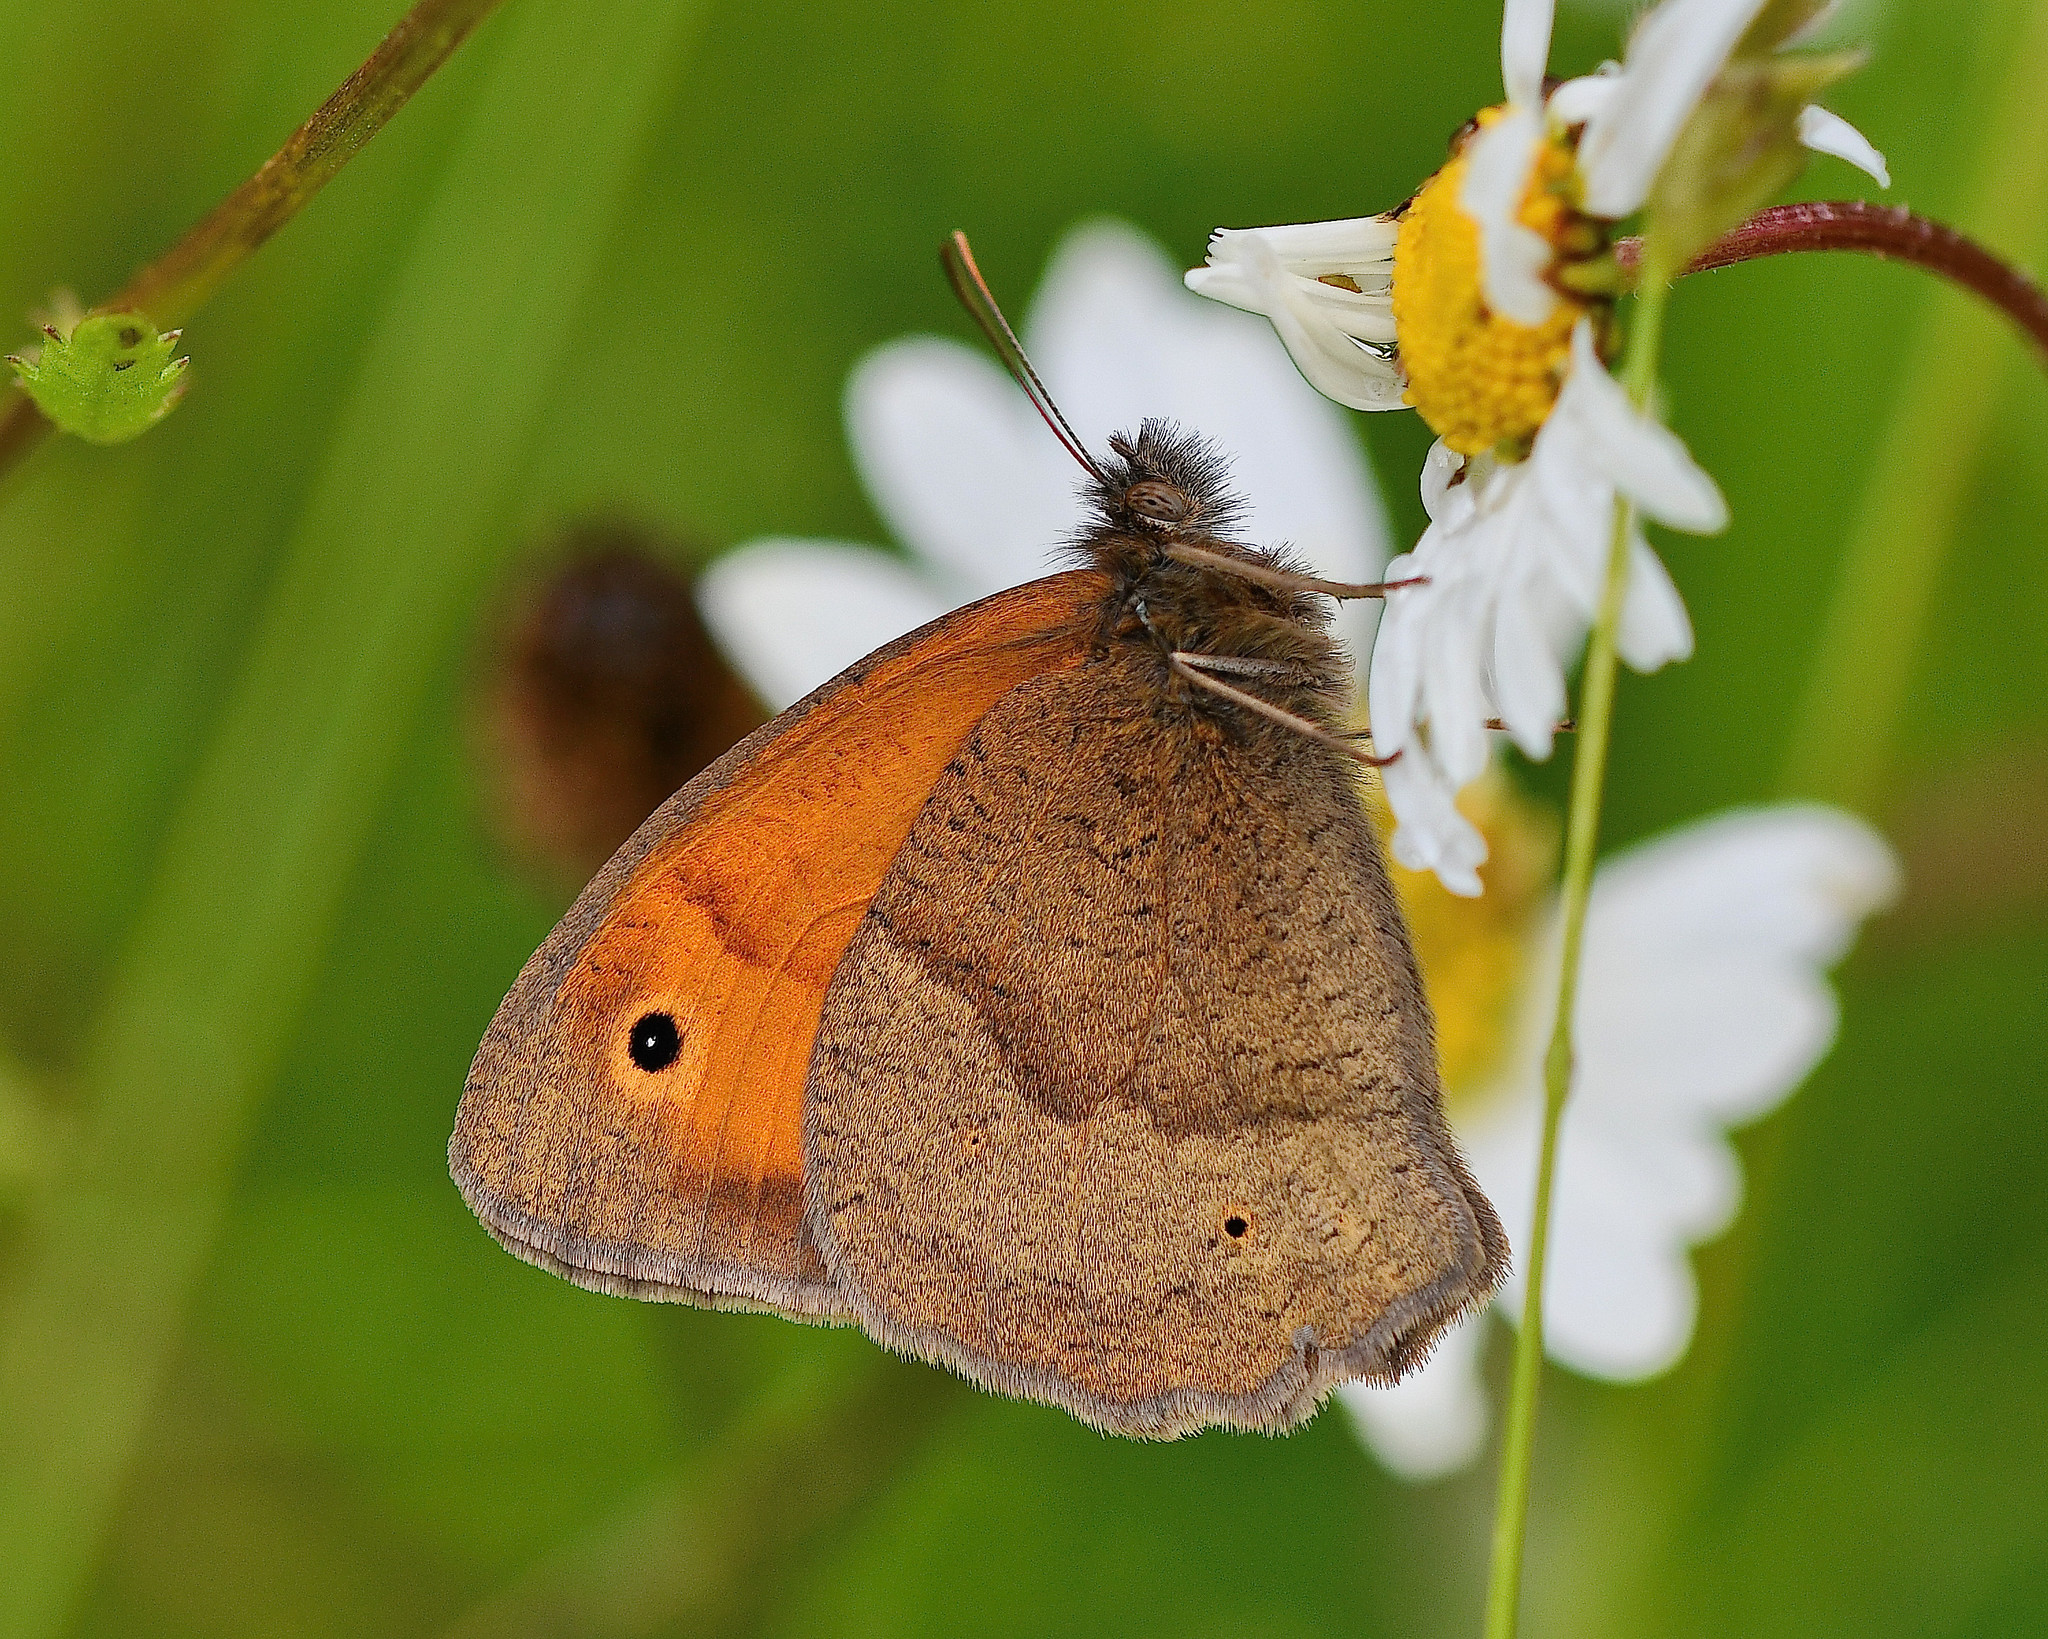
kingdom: Animalia
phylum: Arthropoda
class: Insecta
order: Lepidoptera
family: Nymphalidae
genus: Maniola
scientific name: Maniola jurtina
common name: Meadow brown
